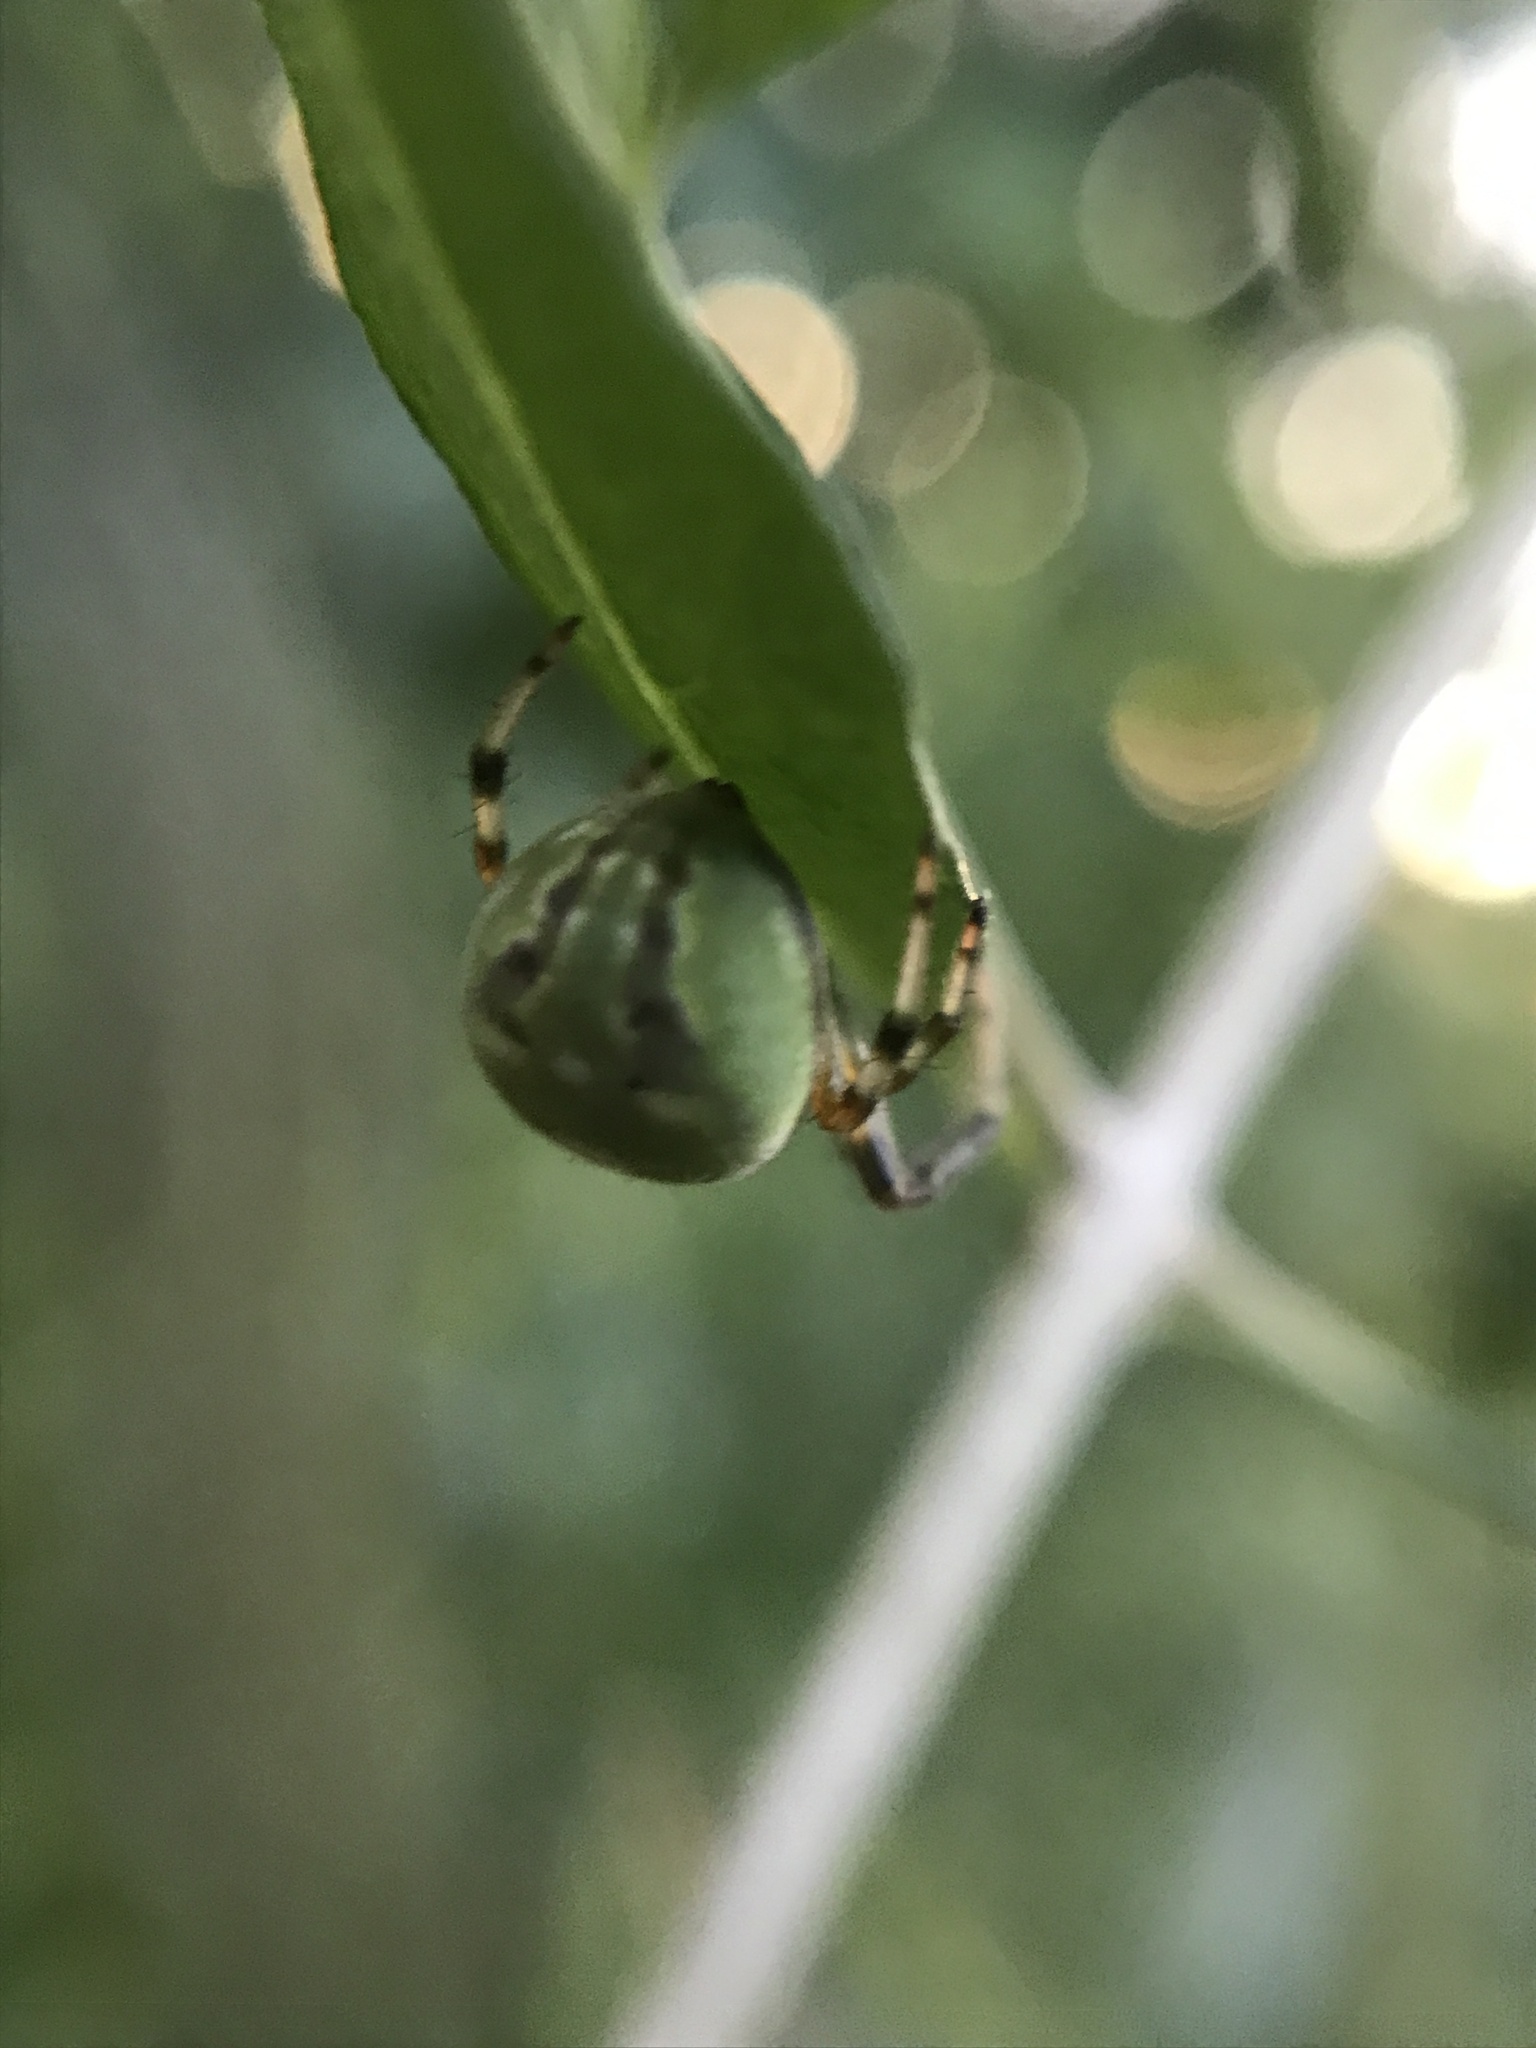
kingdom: Animalia
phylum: Arthropoda
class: Arachnida
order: Araneae
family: Araneidae
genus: Araneus
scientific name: Araneus lathyrinus
